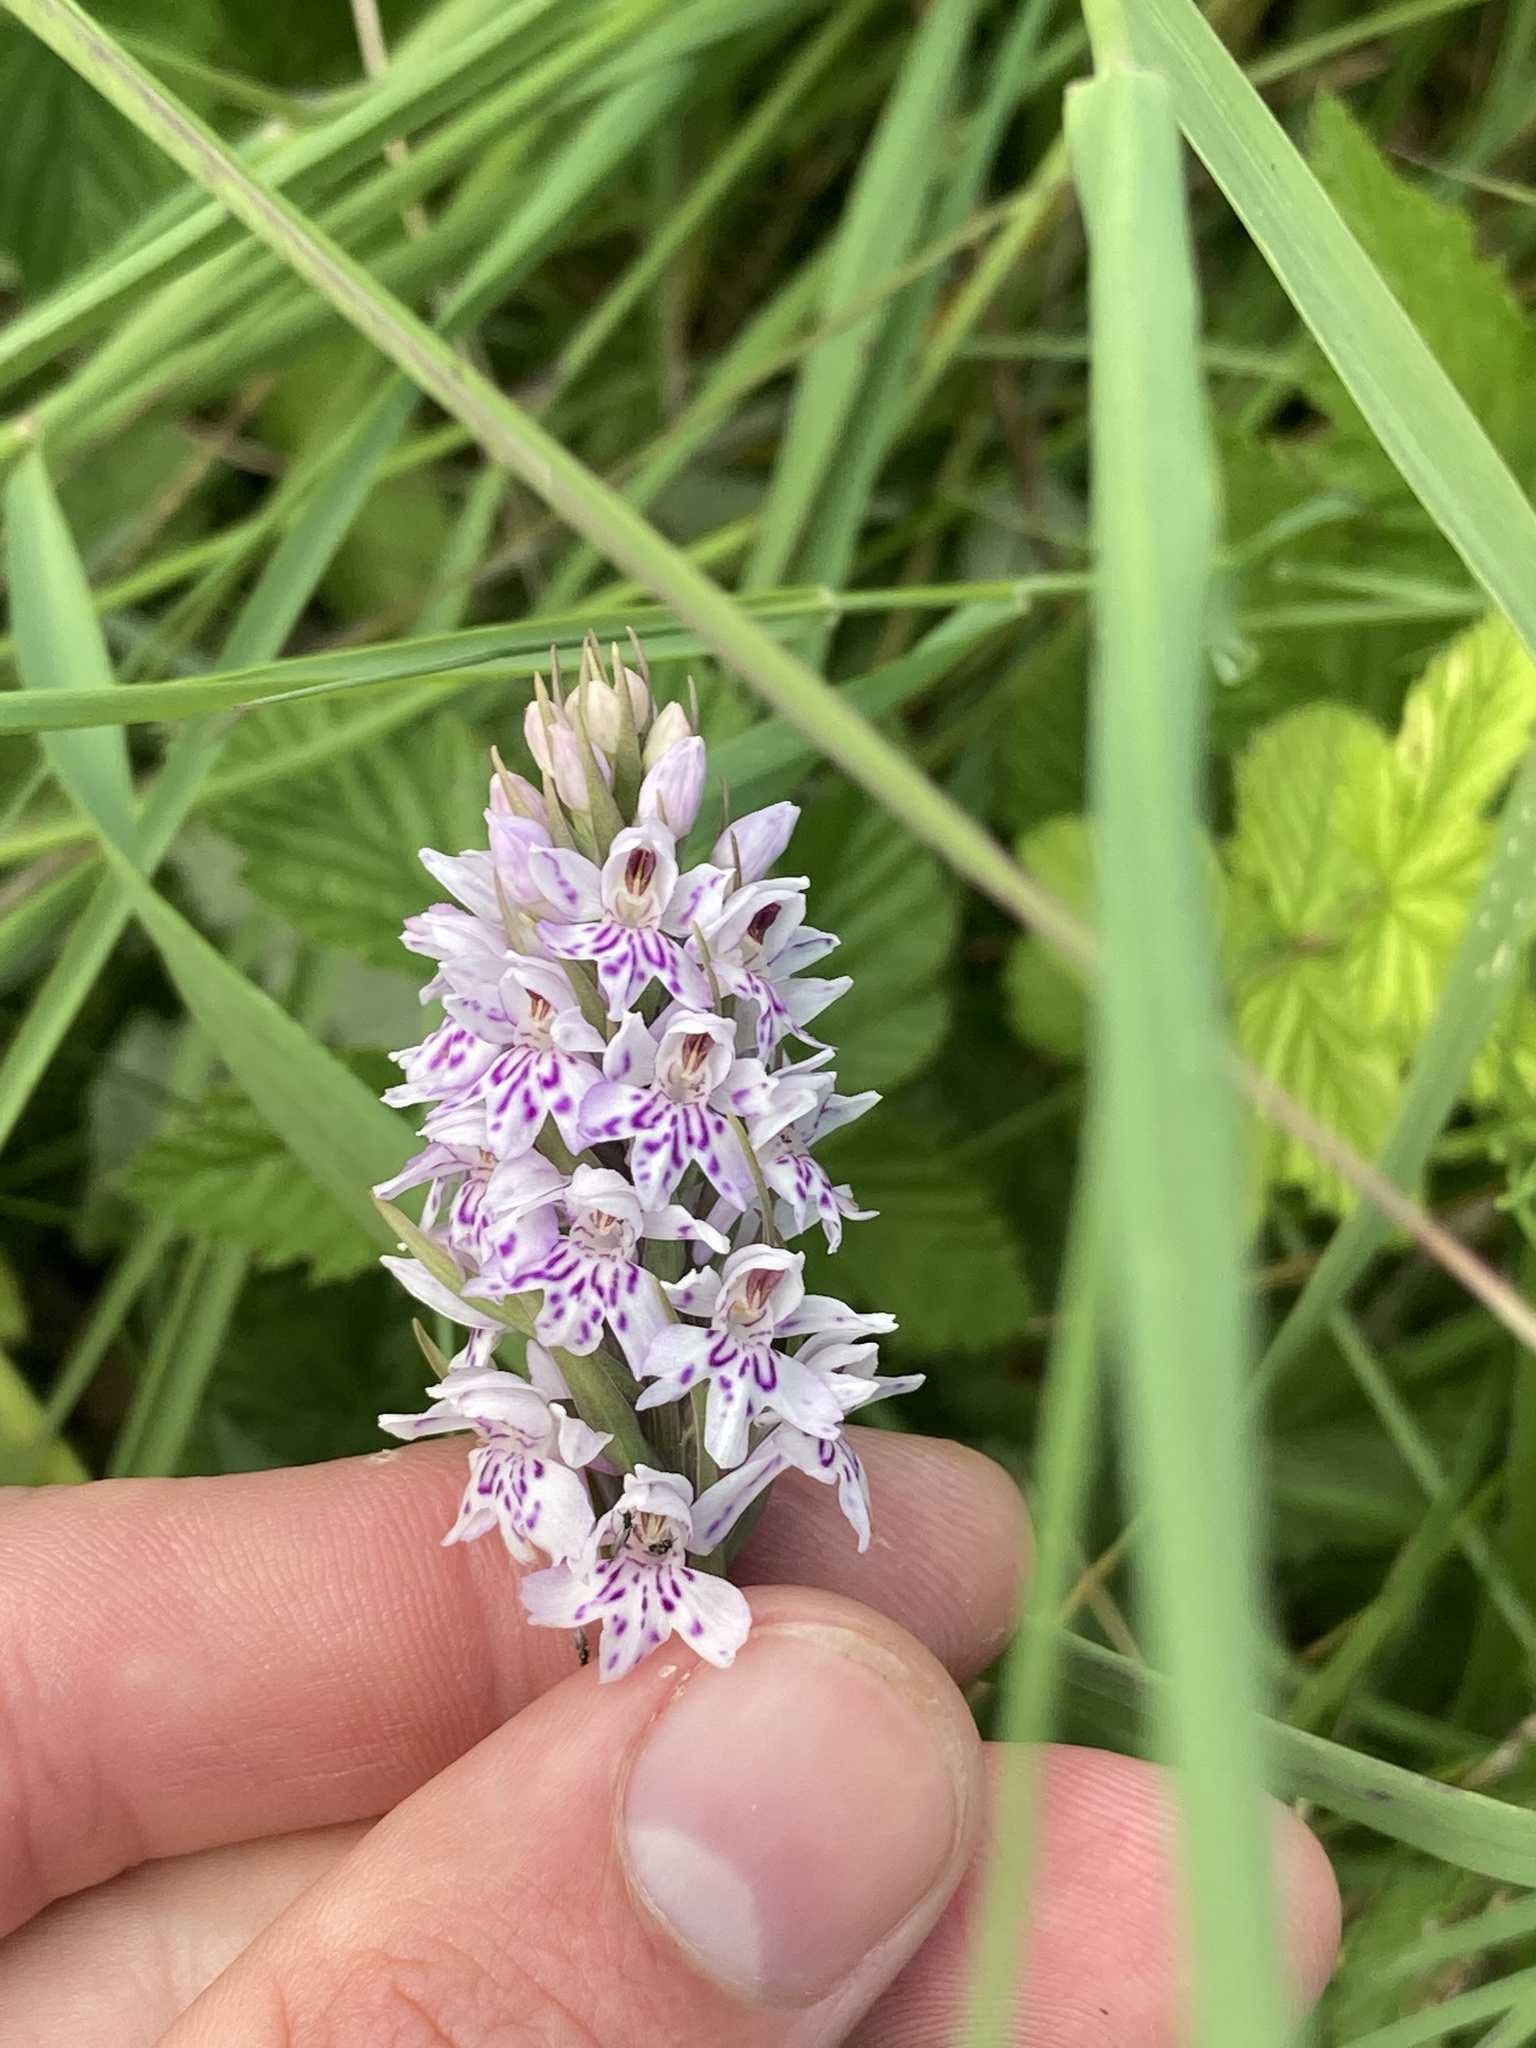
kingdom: Plantae
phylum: Tracheophyta
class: Liliopsida
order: Asparagales
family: Orchidaceae
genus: Dactylorhiza
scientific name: Dactylorhiza maculata
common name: Heath spotted-orchid
